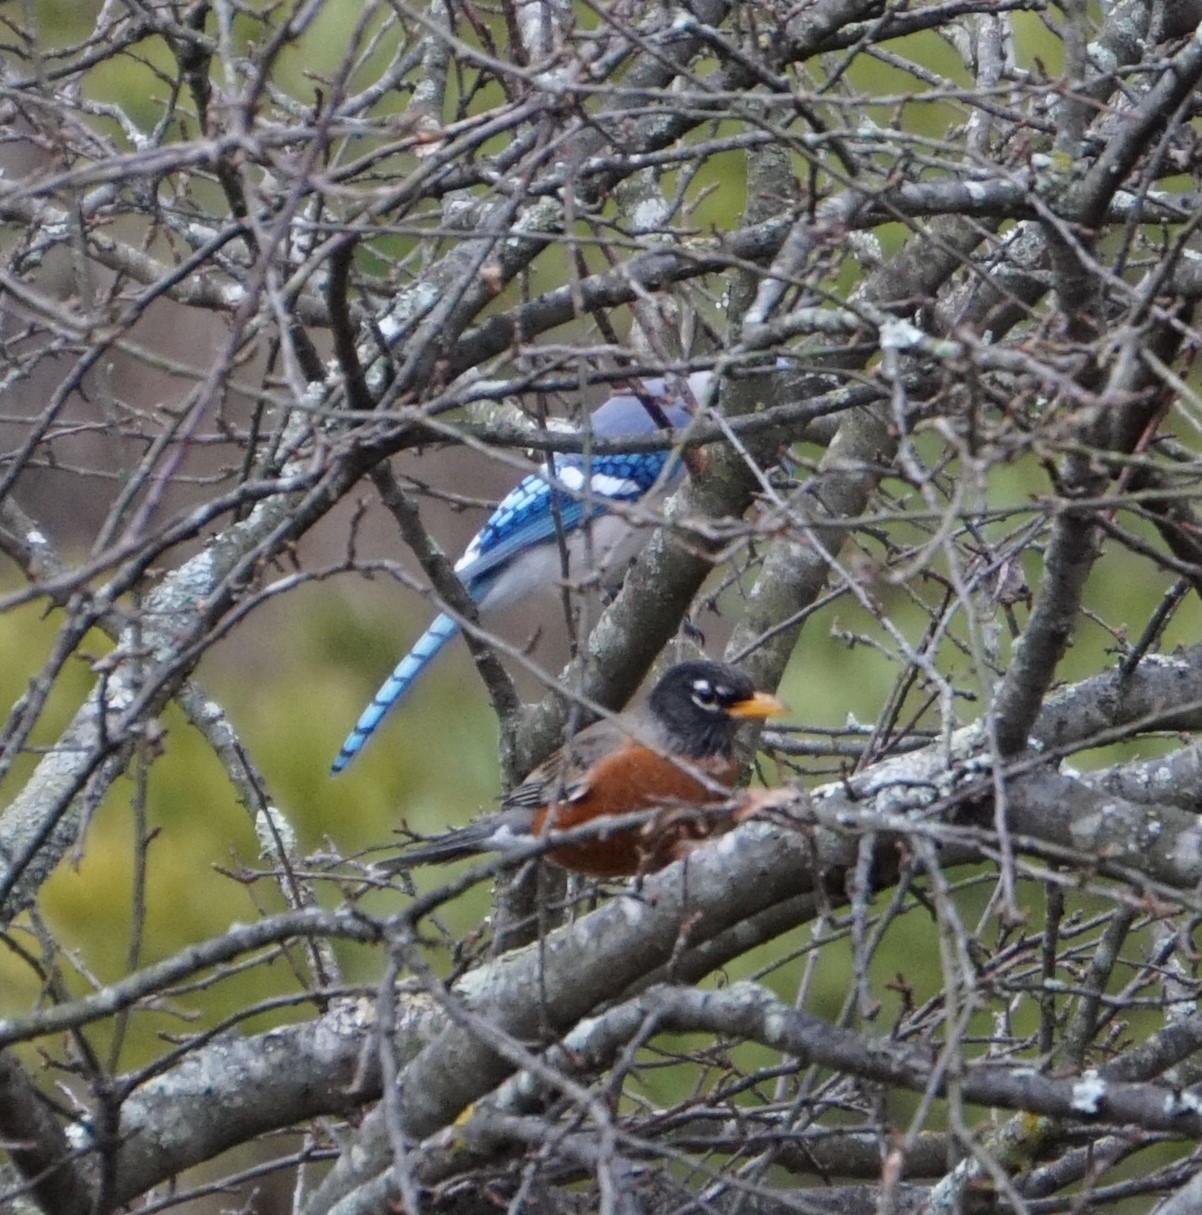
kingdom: Animalia
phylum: Chordata
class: Aves
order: Passeriformes
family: Turdidae
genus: Turdus
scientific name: Turdus migratorius
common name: American robin
